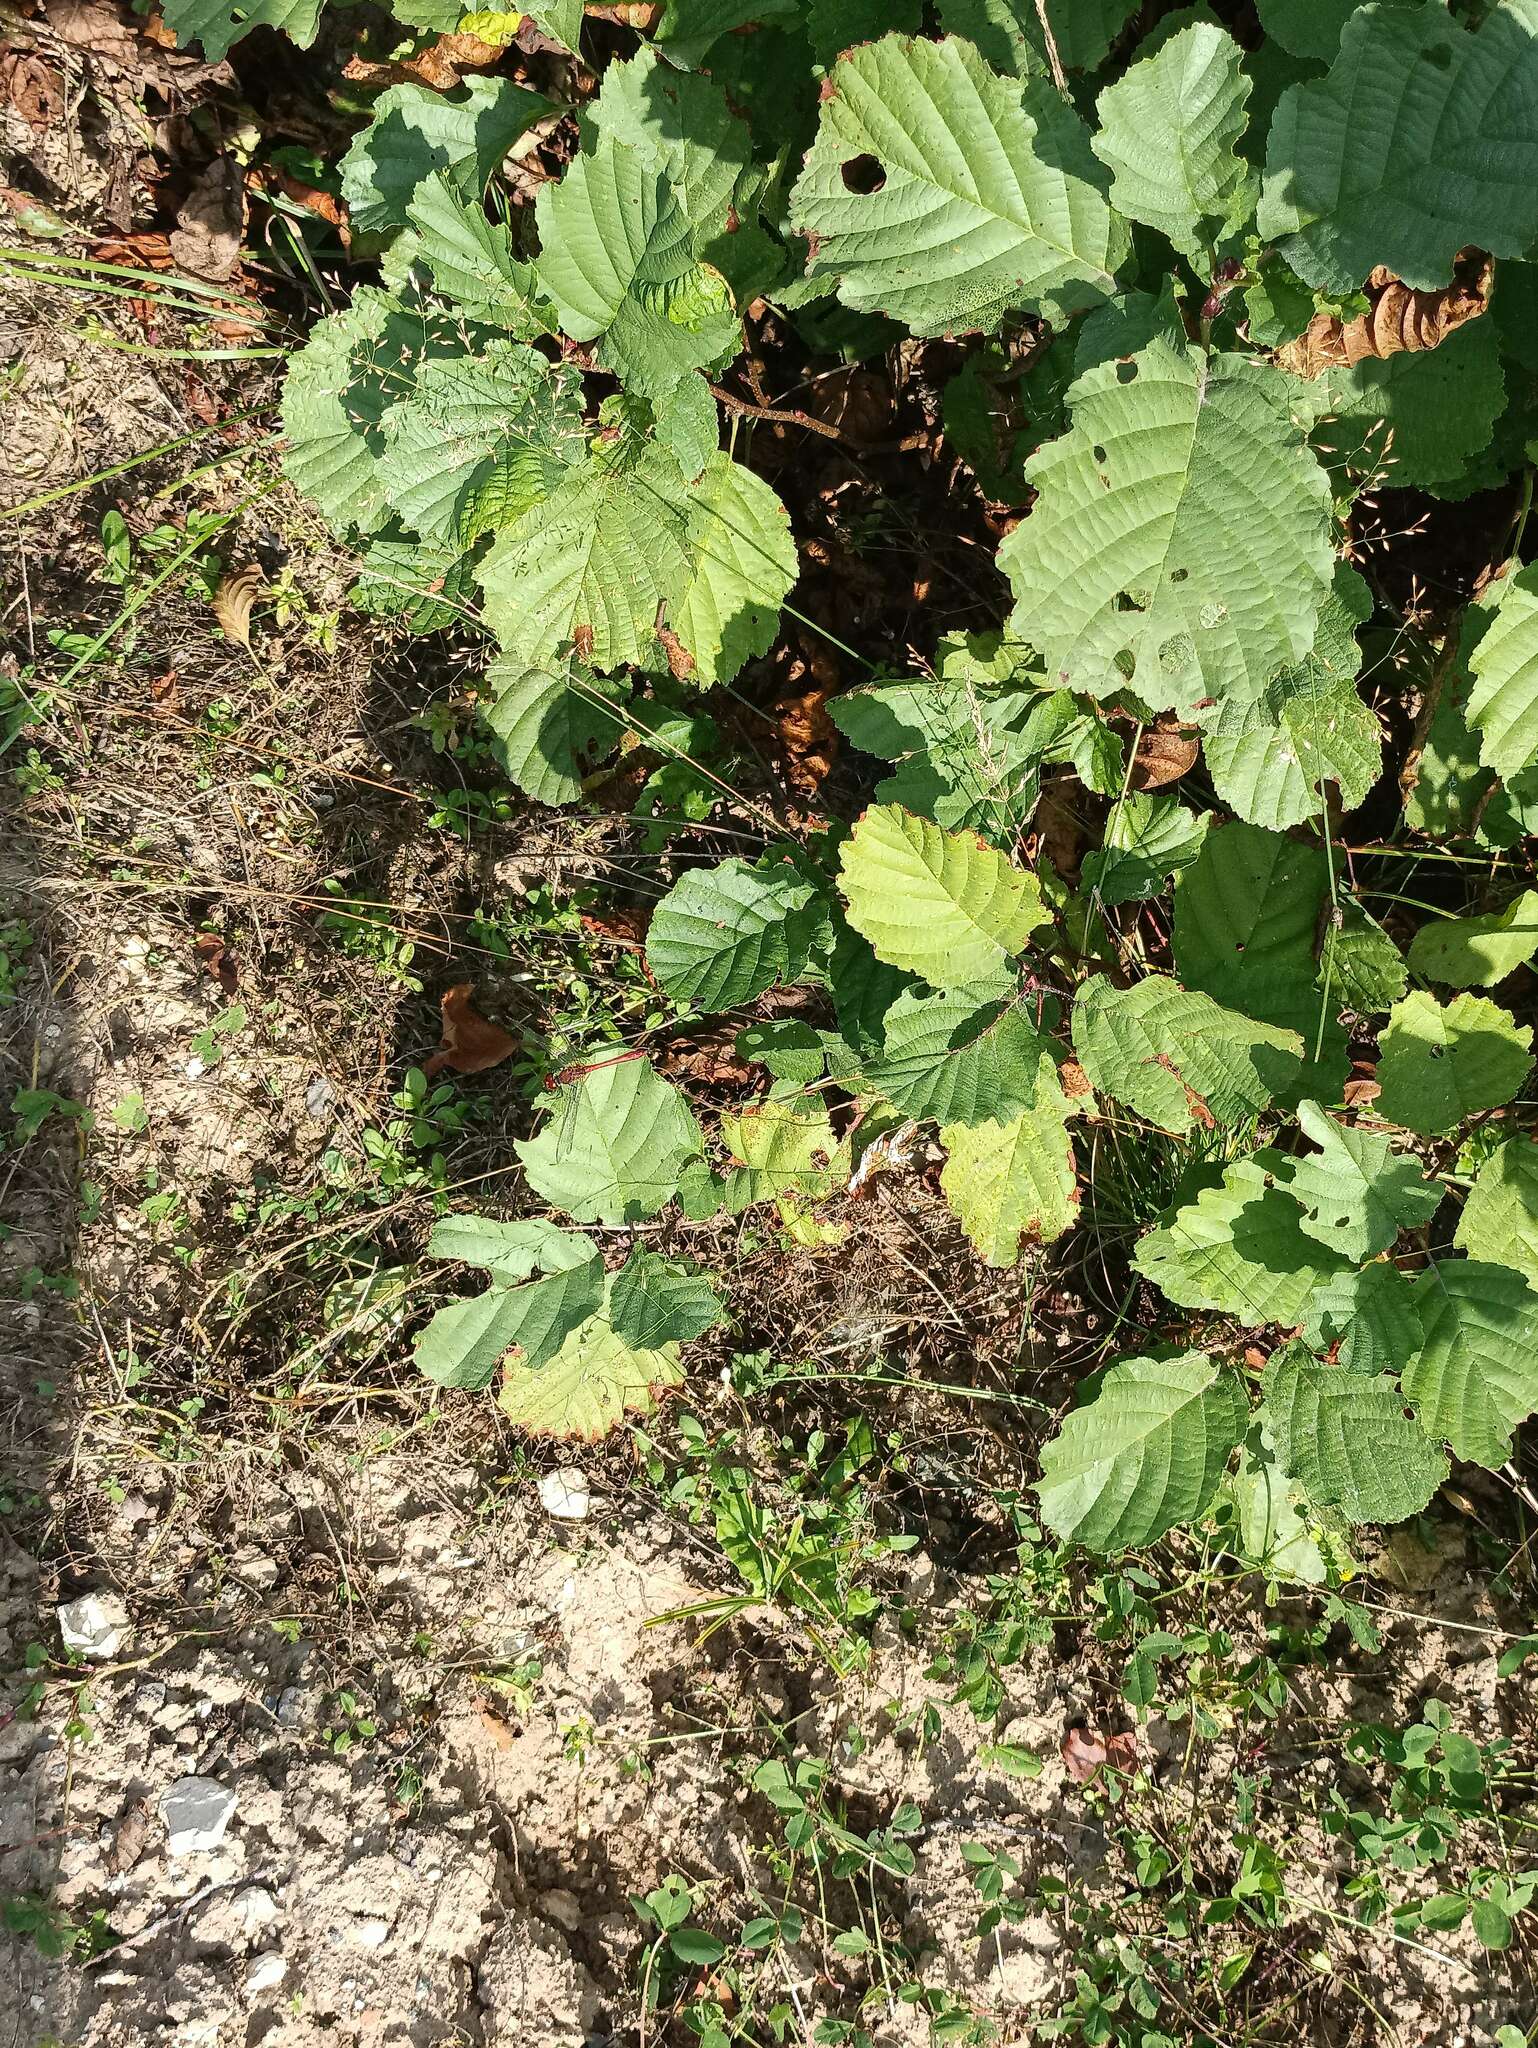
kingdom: Animalia
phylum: Arthropoda
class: Insecta
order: Odonata
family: Libellulidae
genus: Sympetrum
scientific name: Sympetrum sanguineum
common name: Ruddy darter
